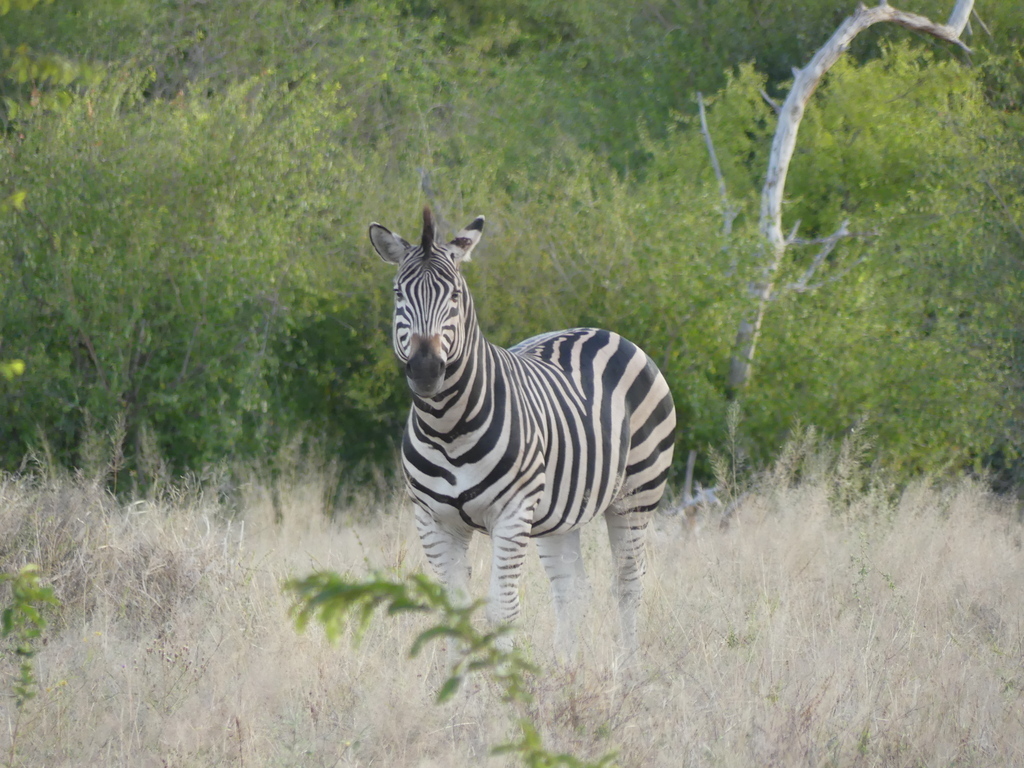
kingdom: Animalia
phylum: Chordata
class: Mammalia
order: Perissodactyla
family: Equidae
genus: Equus
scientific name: Equus quagga
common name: Plains zebra
